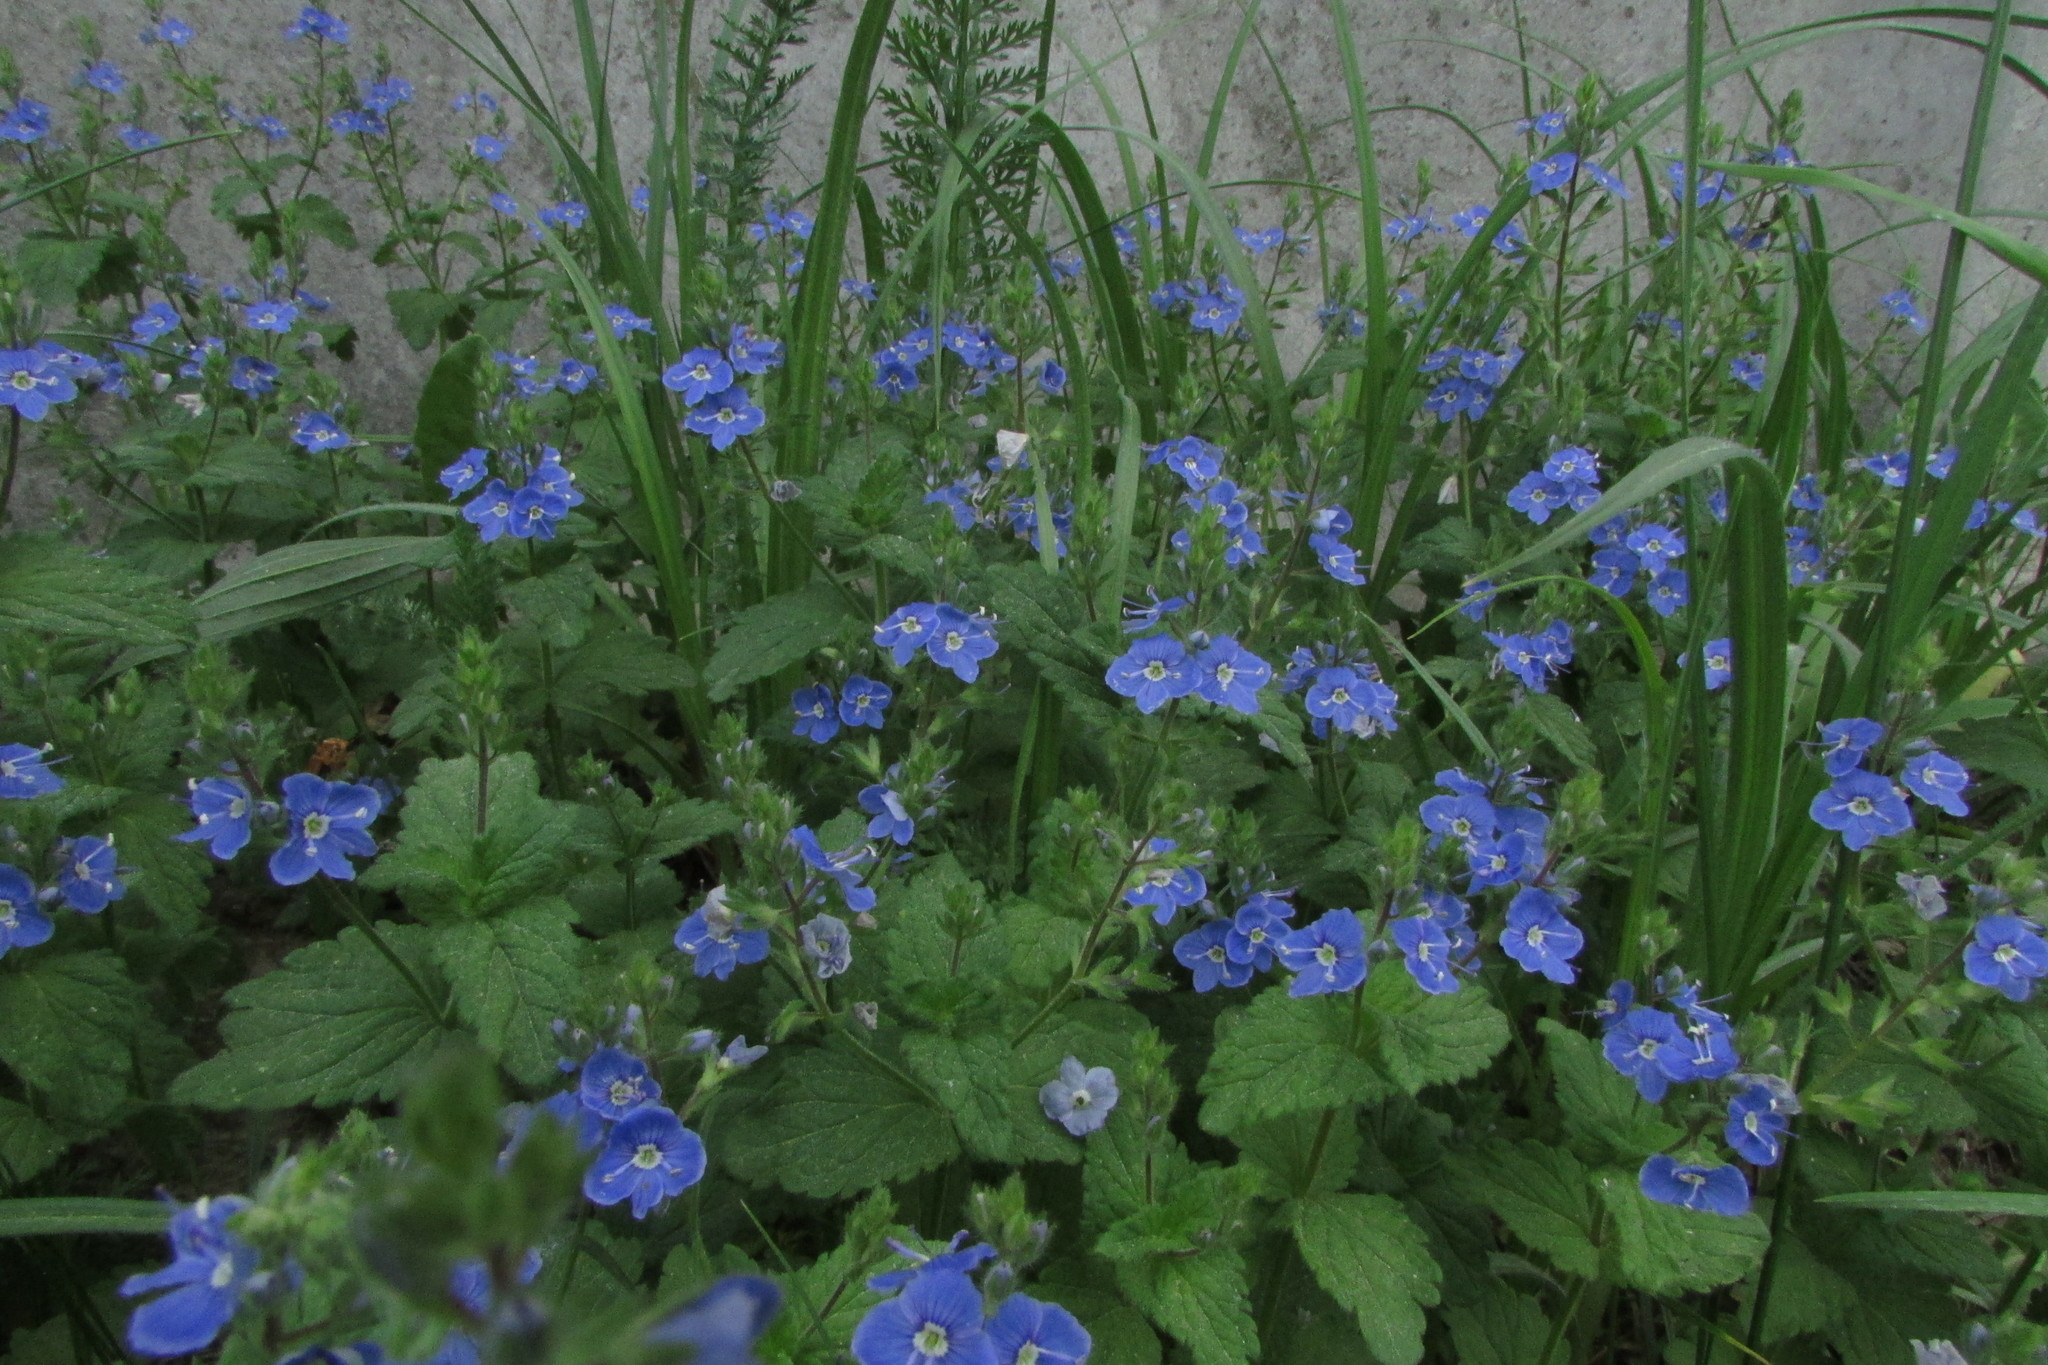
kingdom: Plantae
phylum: Tracheophyta
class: Magnoliopsida
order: Lamiales
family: Plantaginaceae
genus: Veronica
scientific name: Veronica chamaedrys
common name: Germander speedwell
